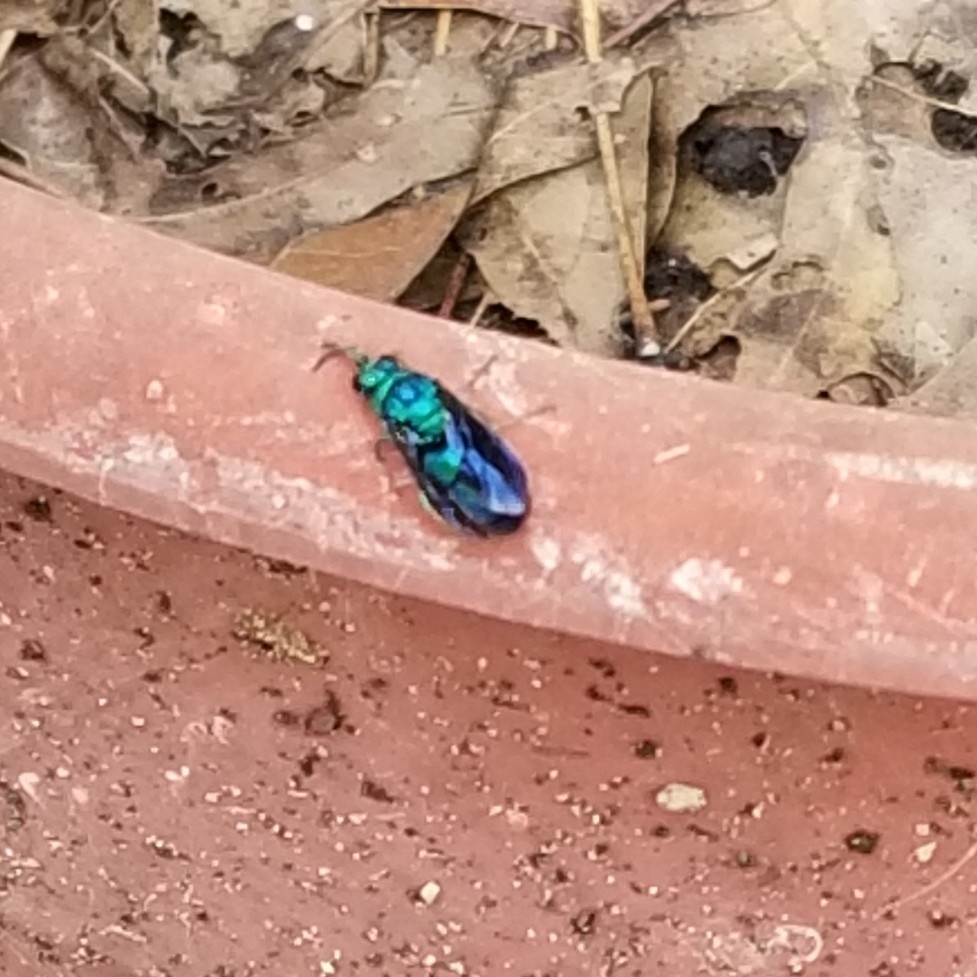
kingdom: Animalia
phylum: Arthropoda
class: Insecta
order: Hymenoptera
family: Chrysididae
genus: Chrysis
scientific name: Chrysis angolensis
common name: Cuckoo wasp
